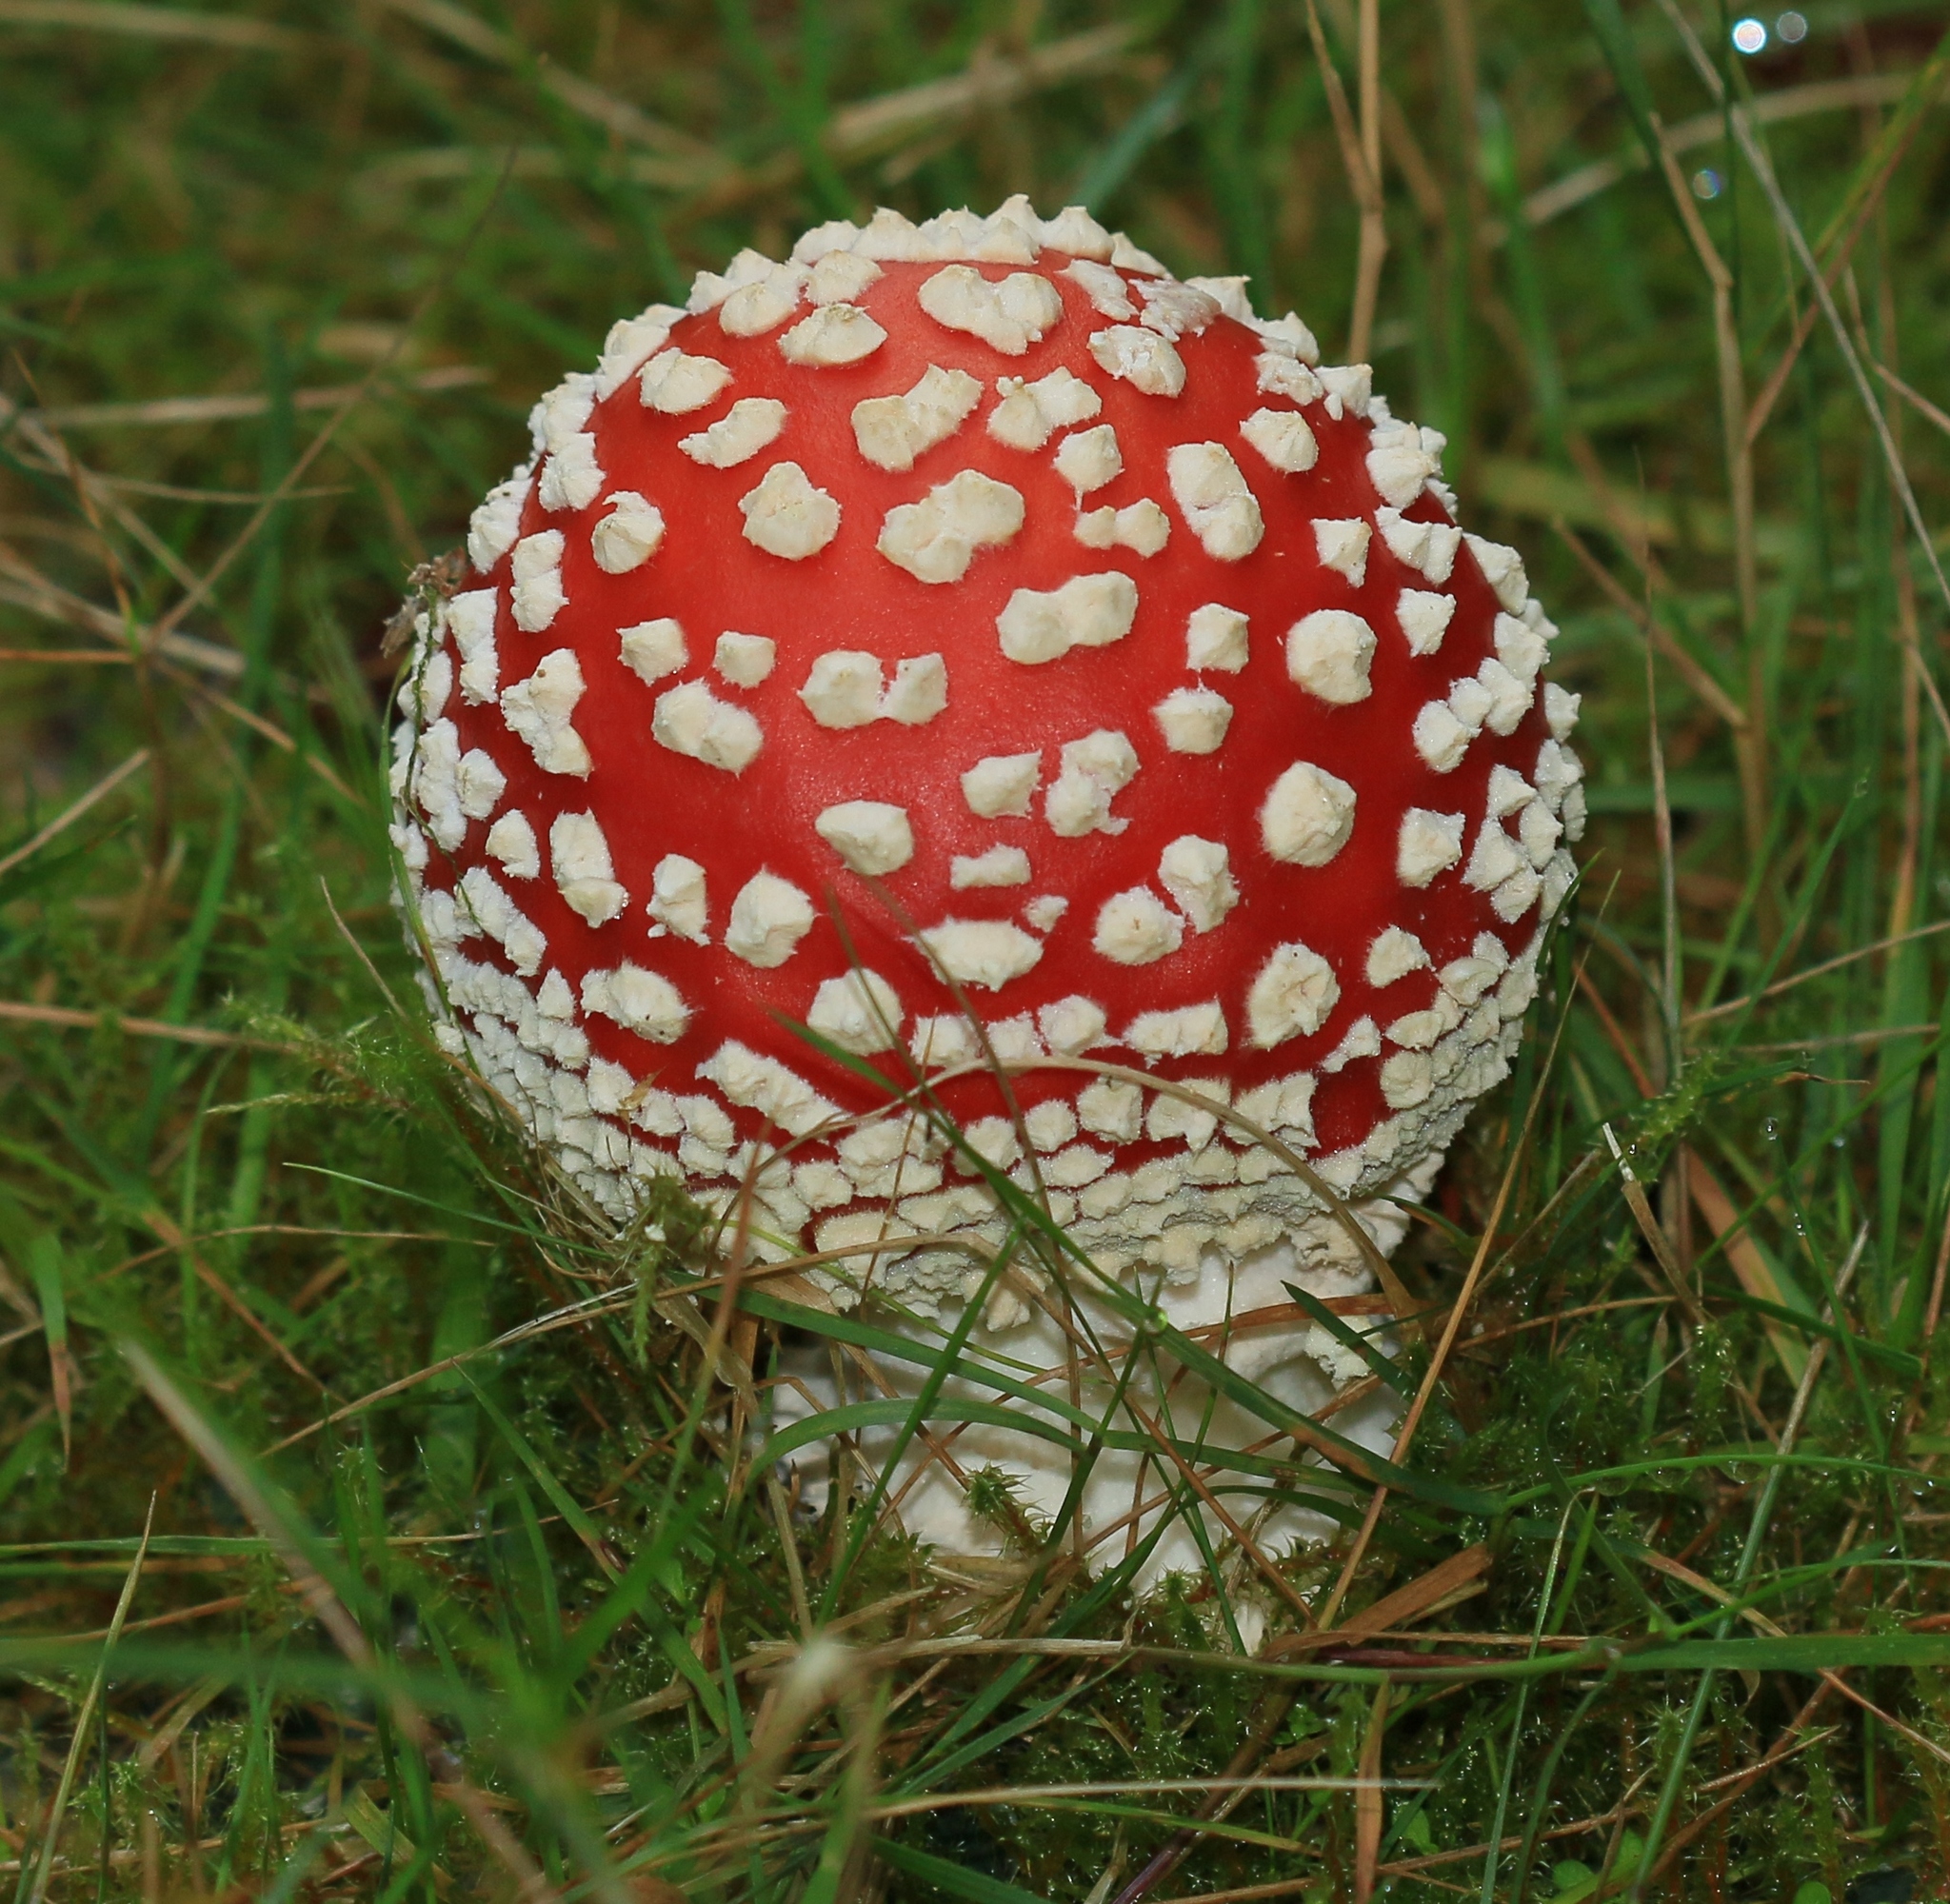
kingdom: Fungi
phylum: Basidiomycota
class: Agaricomycetes
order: Agaricales
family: Amanitaceae
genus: Amanita
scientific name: Amanita muscaria
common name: Fly agaric
